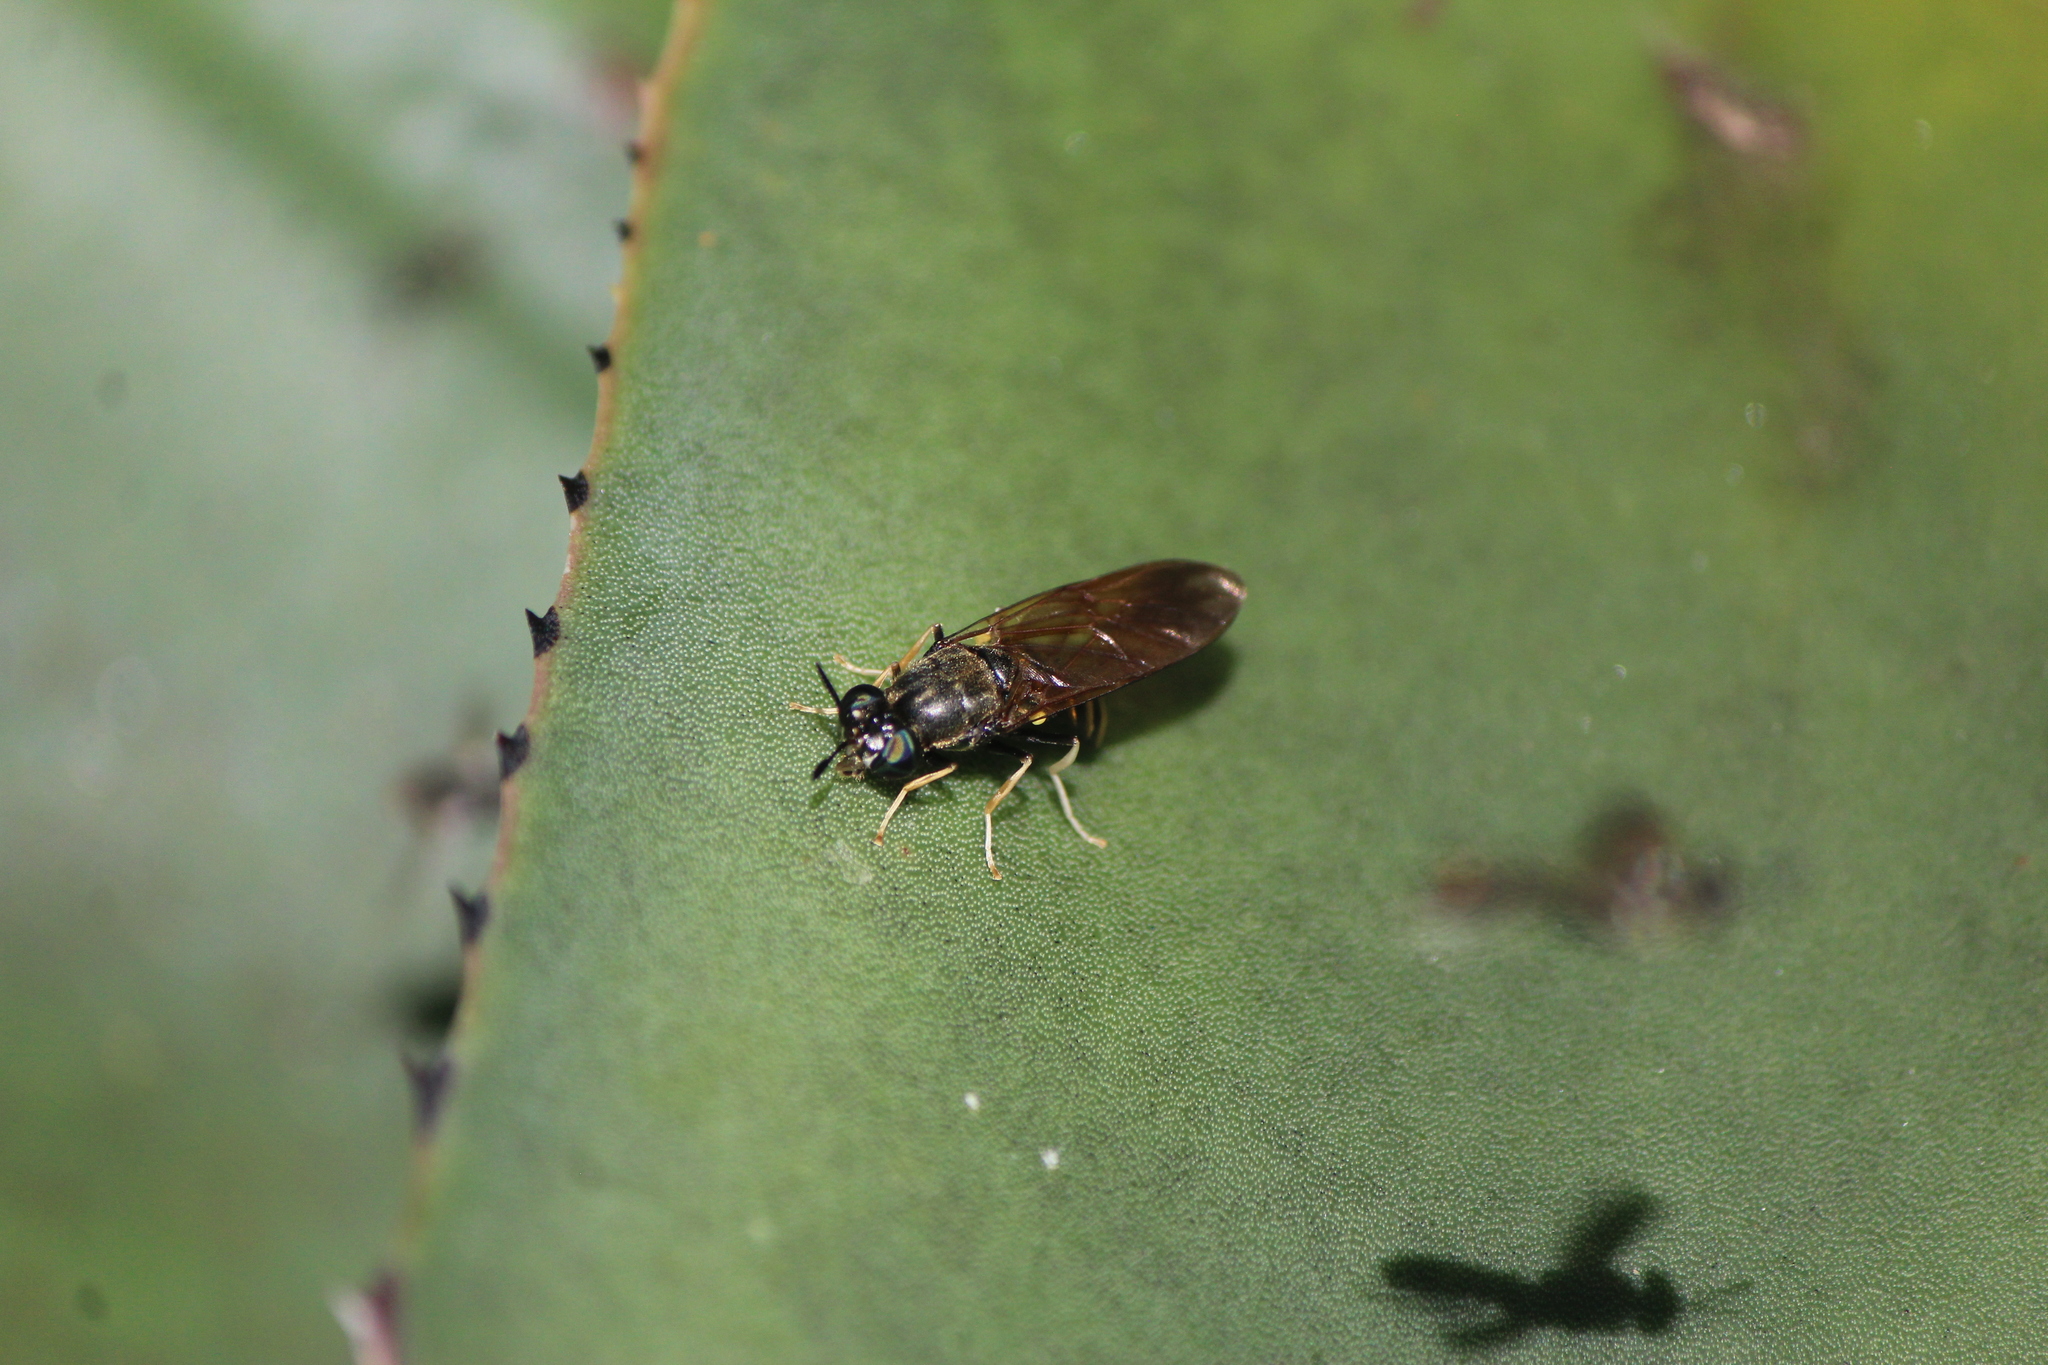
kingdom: Animalia
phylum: Arthropoda
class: Insecta
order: Diptera
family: Stratiomyidae
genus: Hermetia
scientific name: Hermetia aurata
